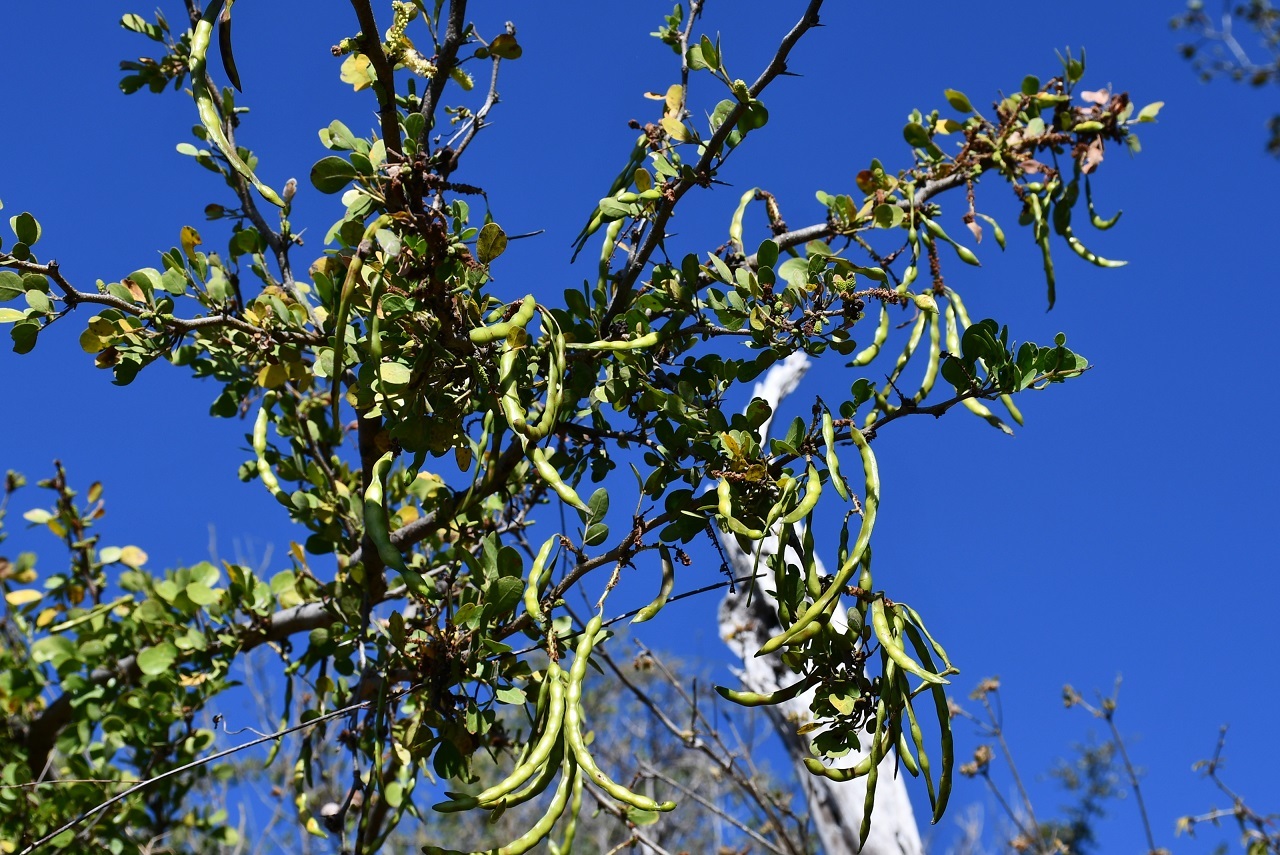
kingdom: Plantae
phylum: Tracheophyta
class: Magnoliopsida
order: Fabales
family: Fabaceae
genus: Pithecellobium
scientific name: Pithecellobium lanceolatum
